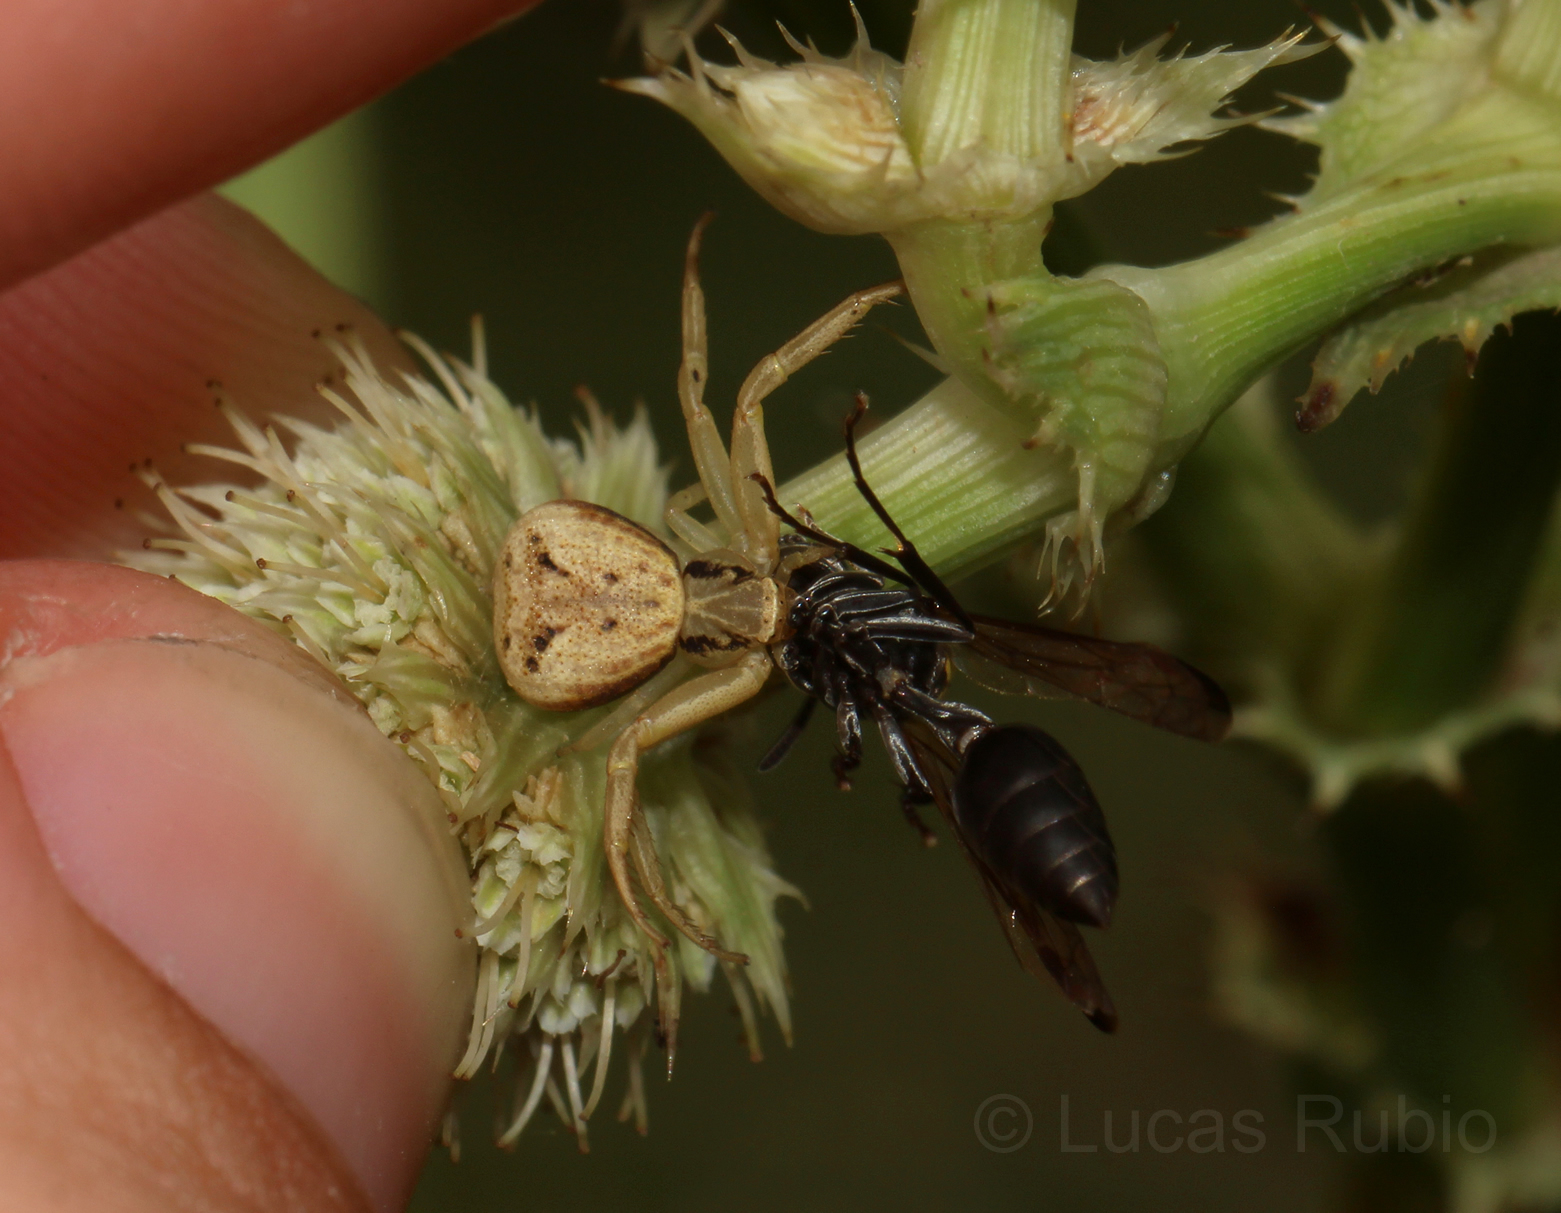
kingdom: Animalia
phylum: Arthropoda
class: Arachnida
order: Araneae
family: Thomisidae
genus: Uraarachne
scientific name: Uraarachne variegata
